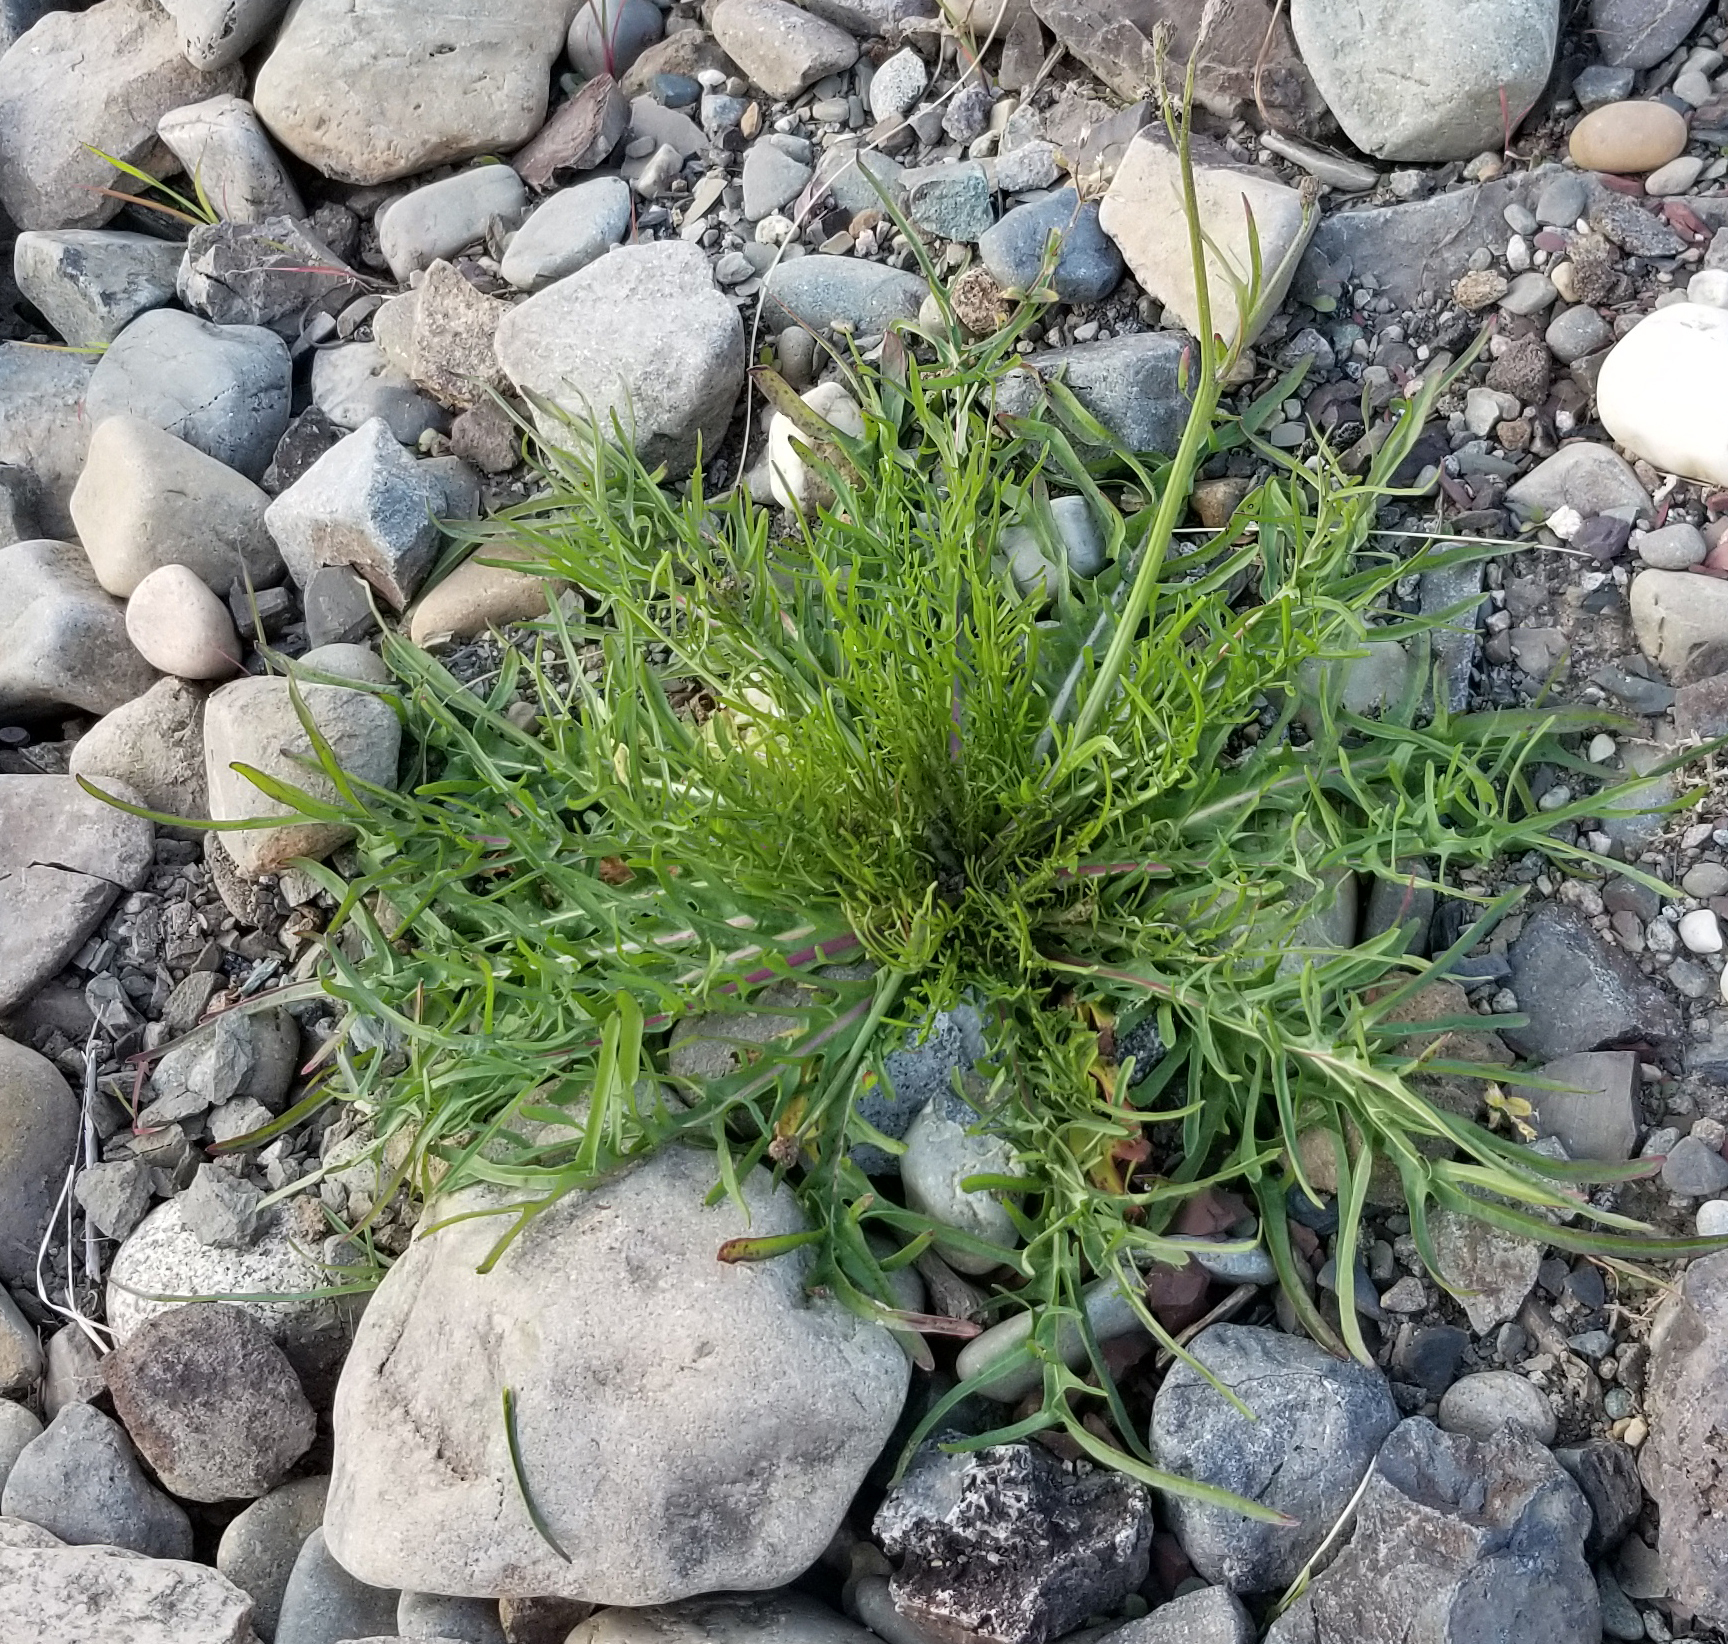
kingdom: Plantae
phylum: Tracheophyta
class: Magnoliopsida
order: Asterales
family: Asteraceae
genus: Scorzoneroides
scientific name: Scorzoneroides autumnalis
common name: Autumn hawkbit
